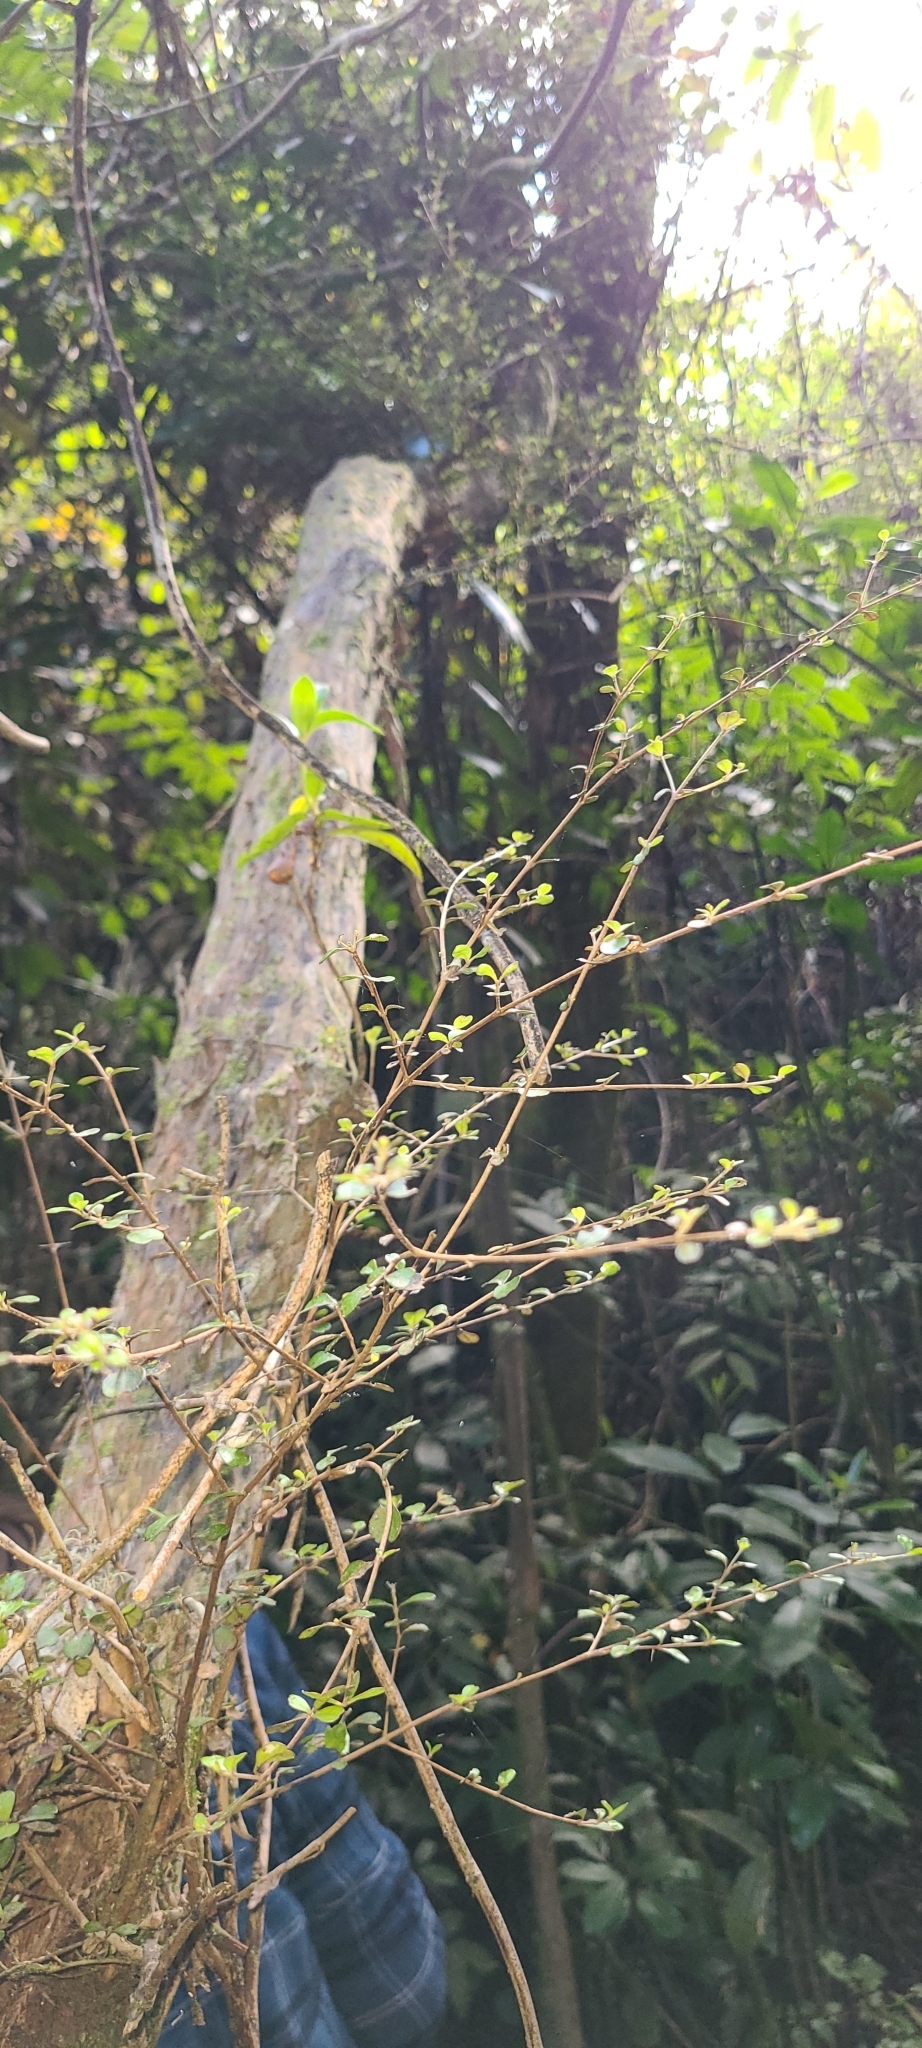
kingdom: Plantae
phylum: Tracheophyta
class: Magnoliopsida
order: Myrtales
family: Myrtaceae
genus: Lophomyrtus
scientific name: Lophomyrtus obcordata
